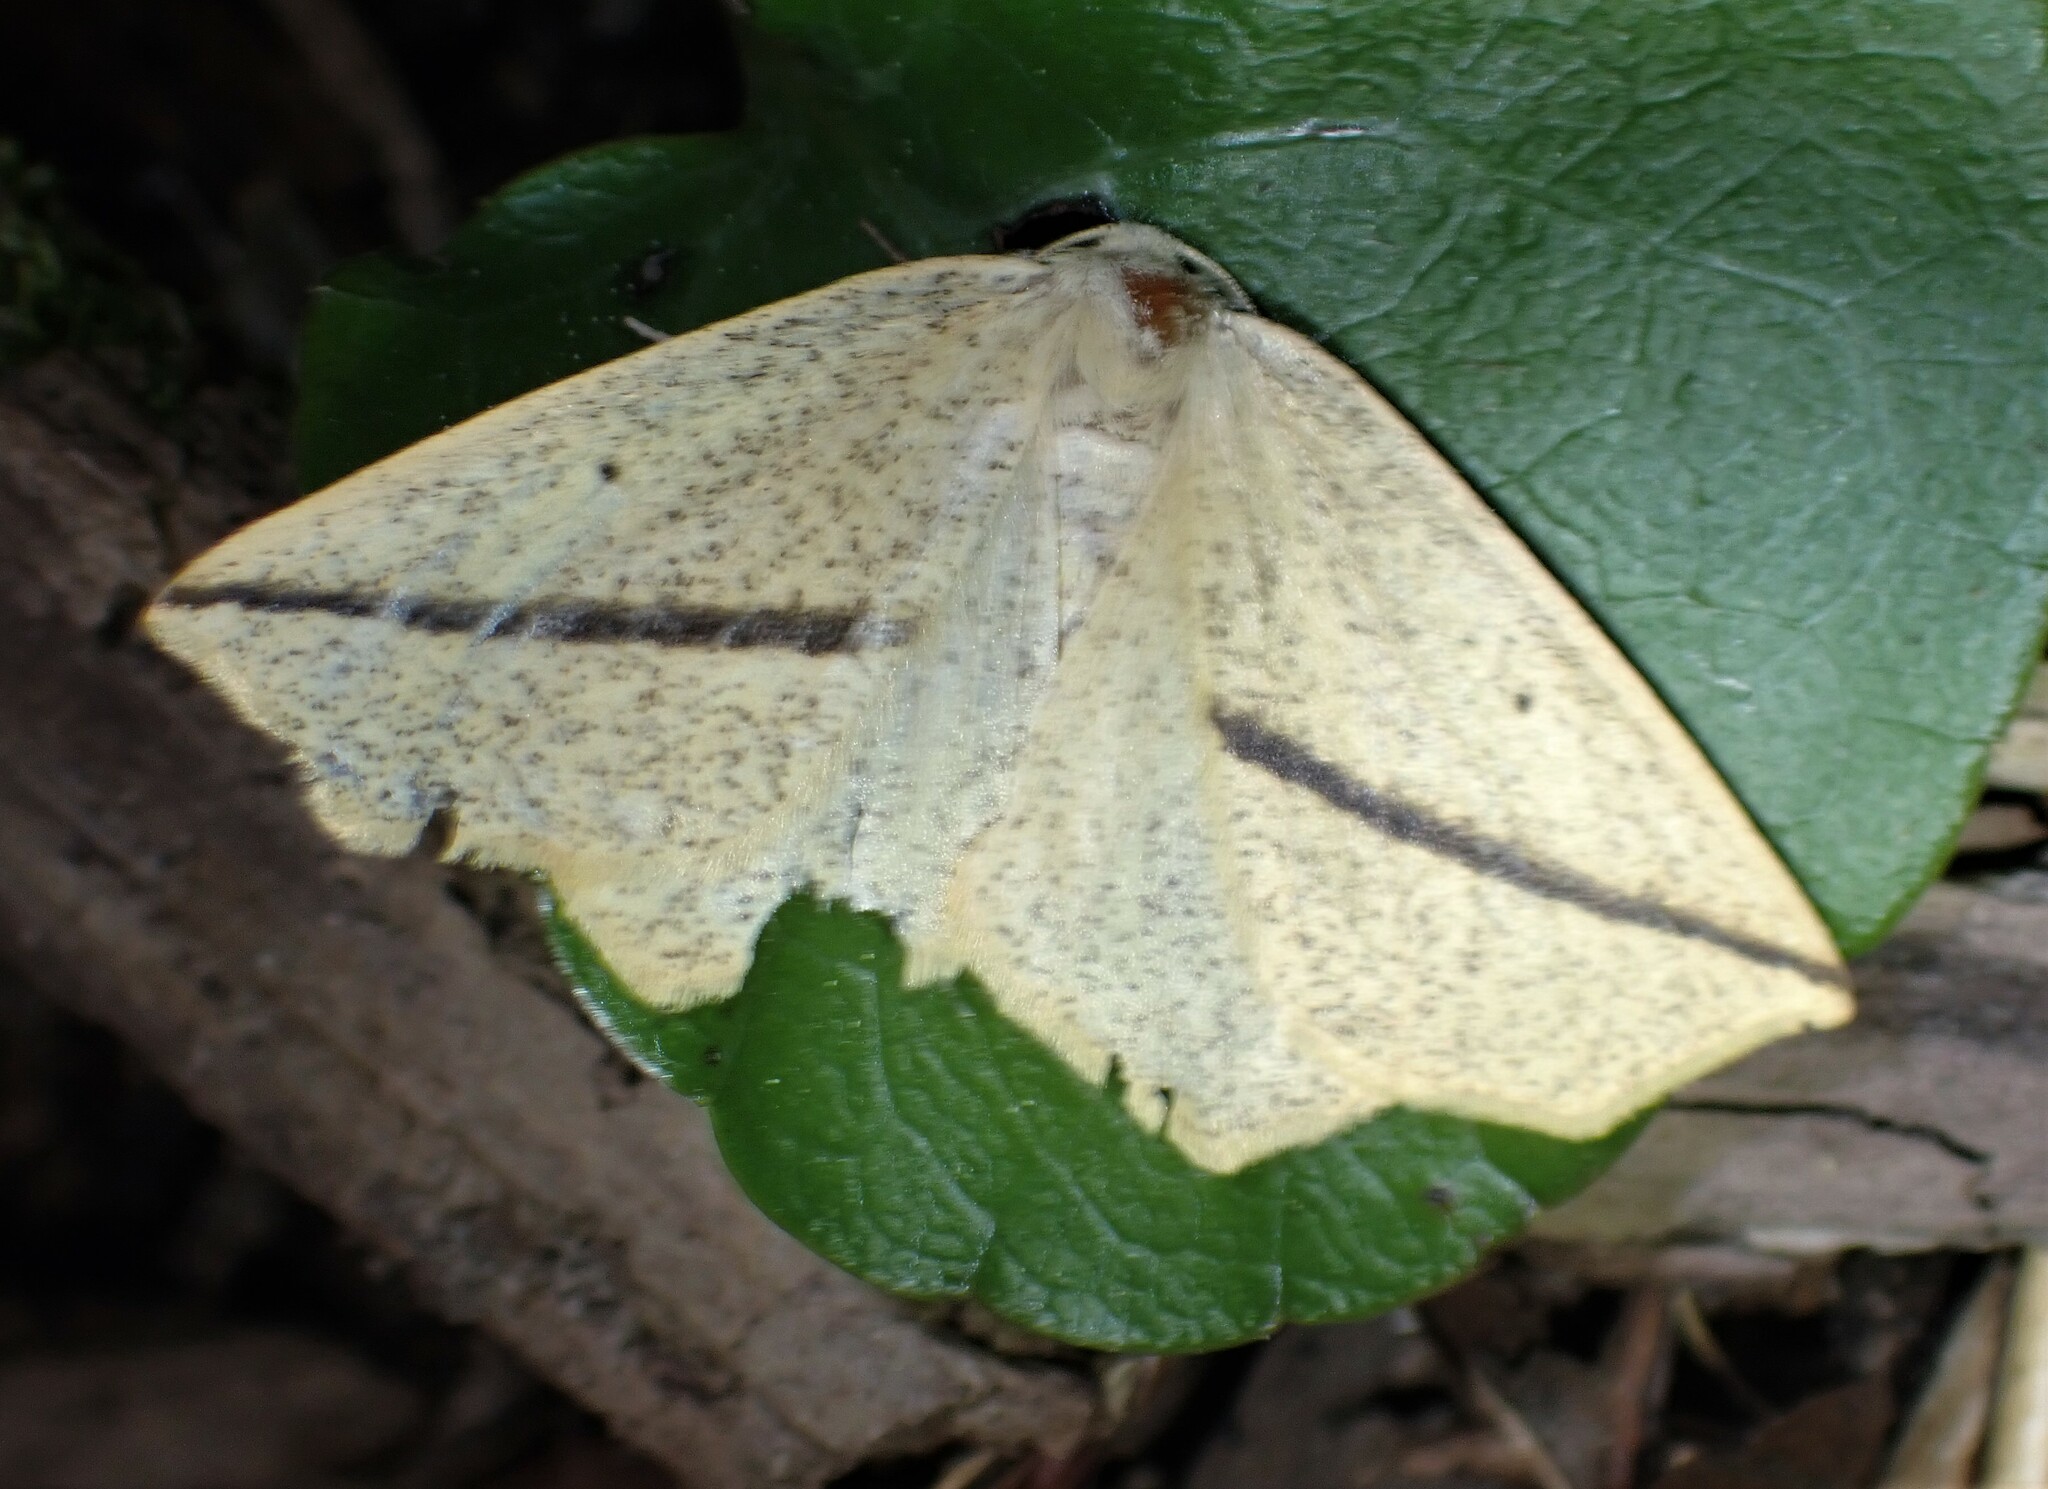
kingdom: Animalia
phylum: Arthropoda
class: Insecta
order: Lepidoptera
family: Geometridae
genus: Tetracis
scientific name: Tetracis crocallata
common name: Yellow slant-line
